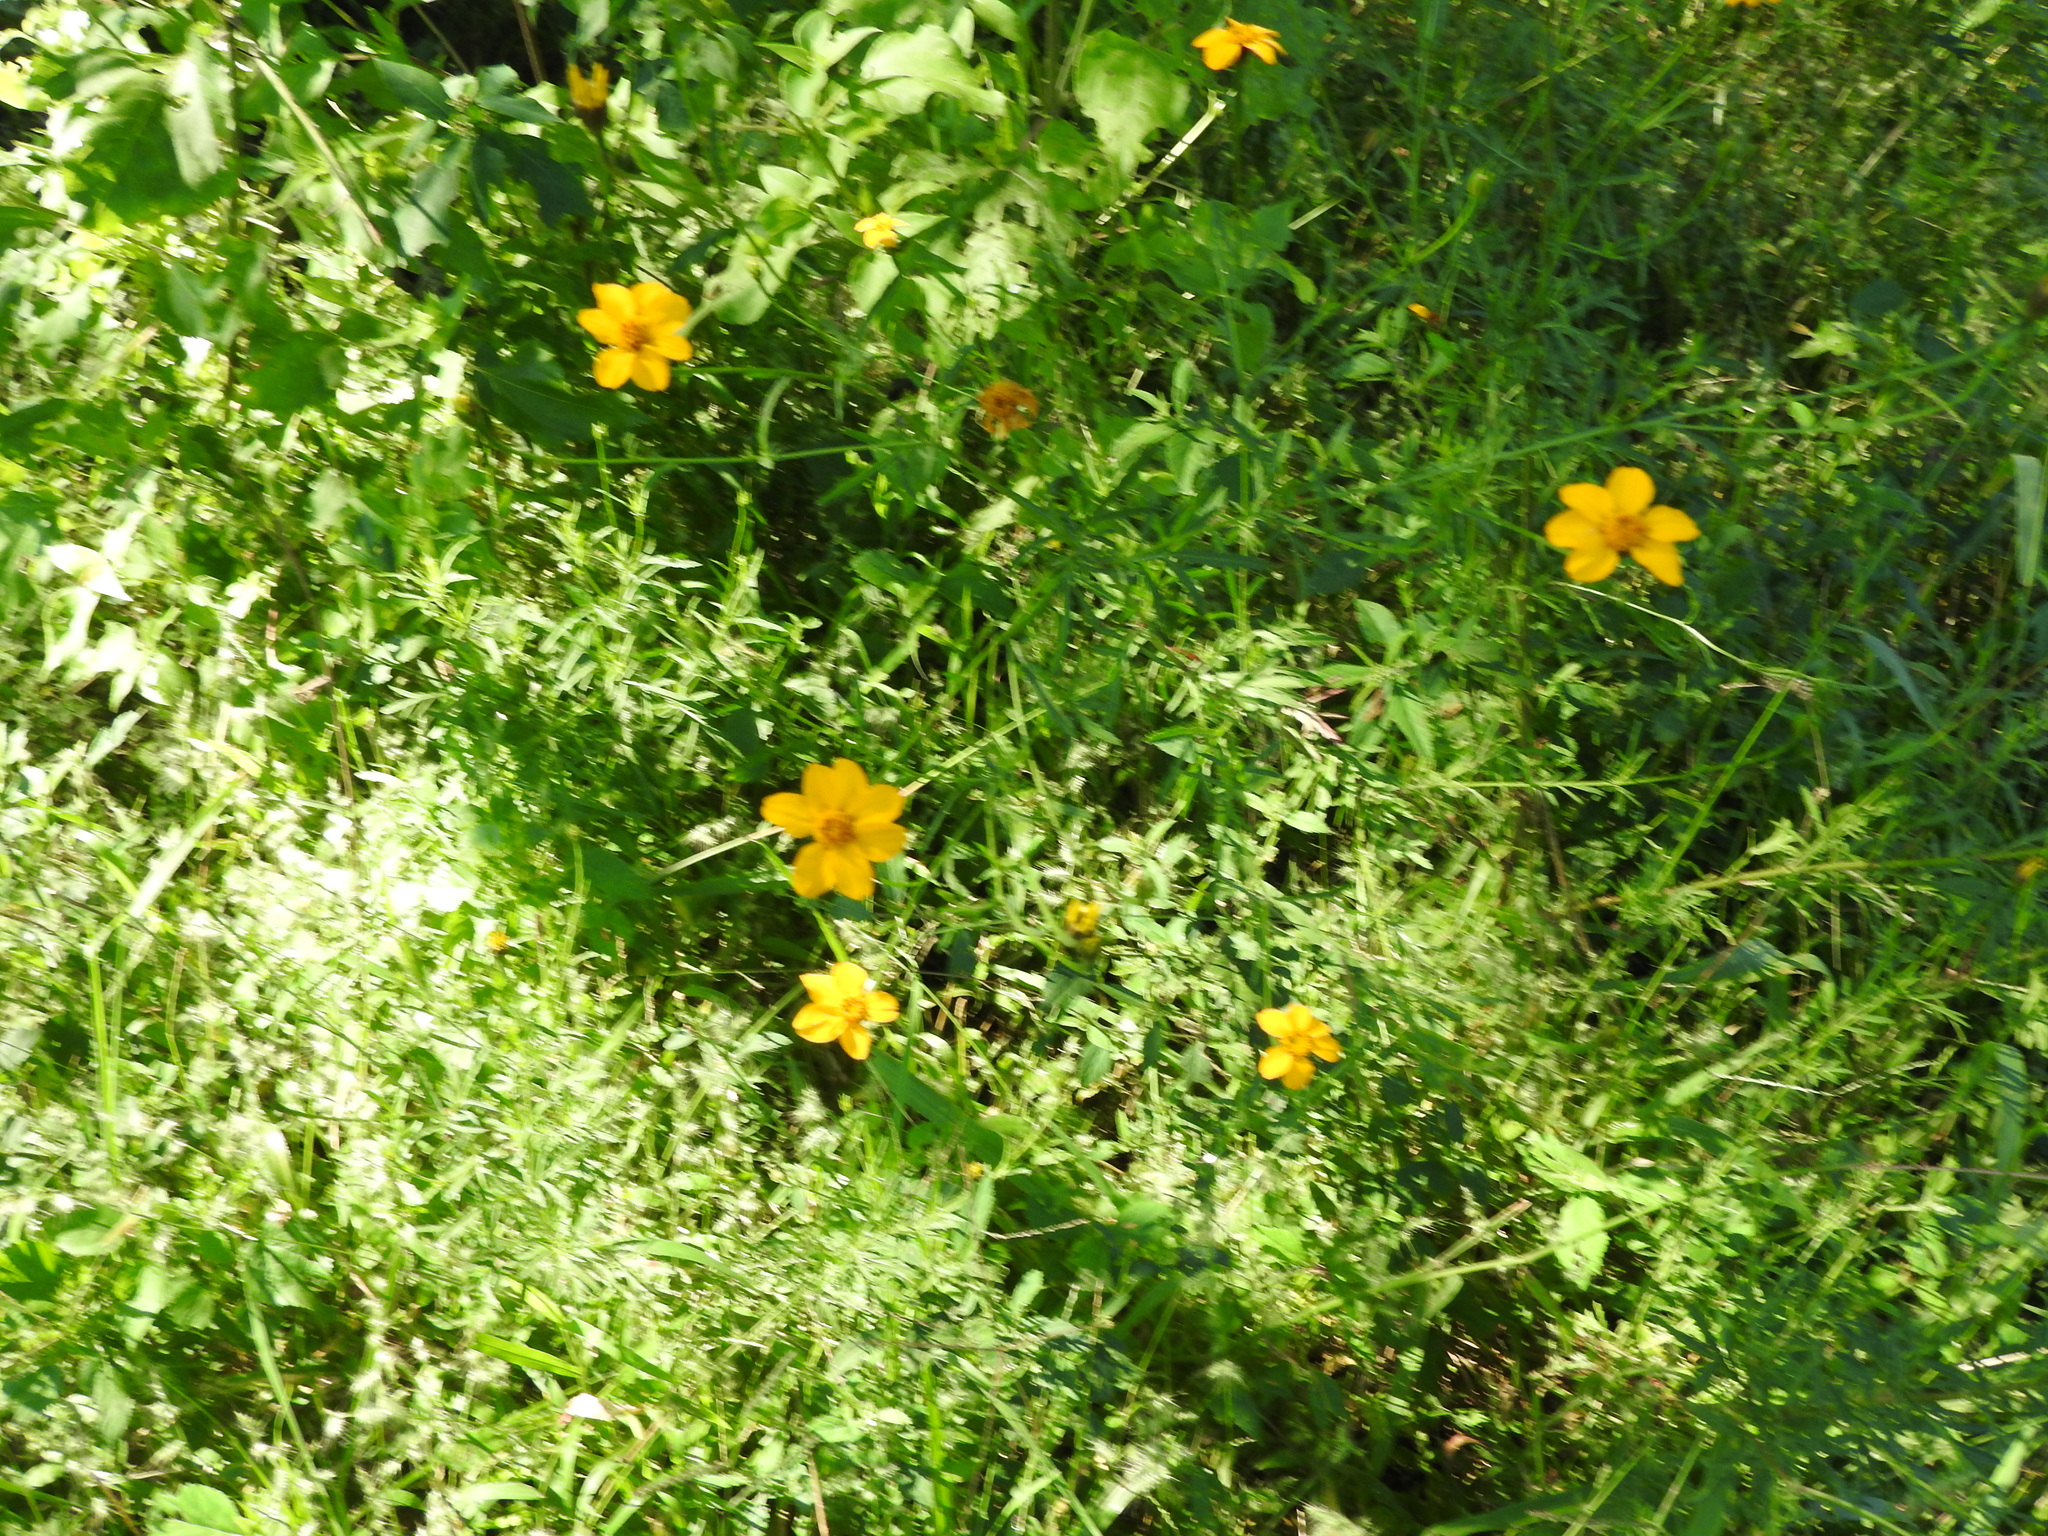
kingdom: Plantae
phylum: Tracheophyta
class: Magnoliopsida
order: Asterales
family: Asteraceae
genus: Adenophyllum
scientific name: Adenophyllum cancellatum
